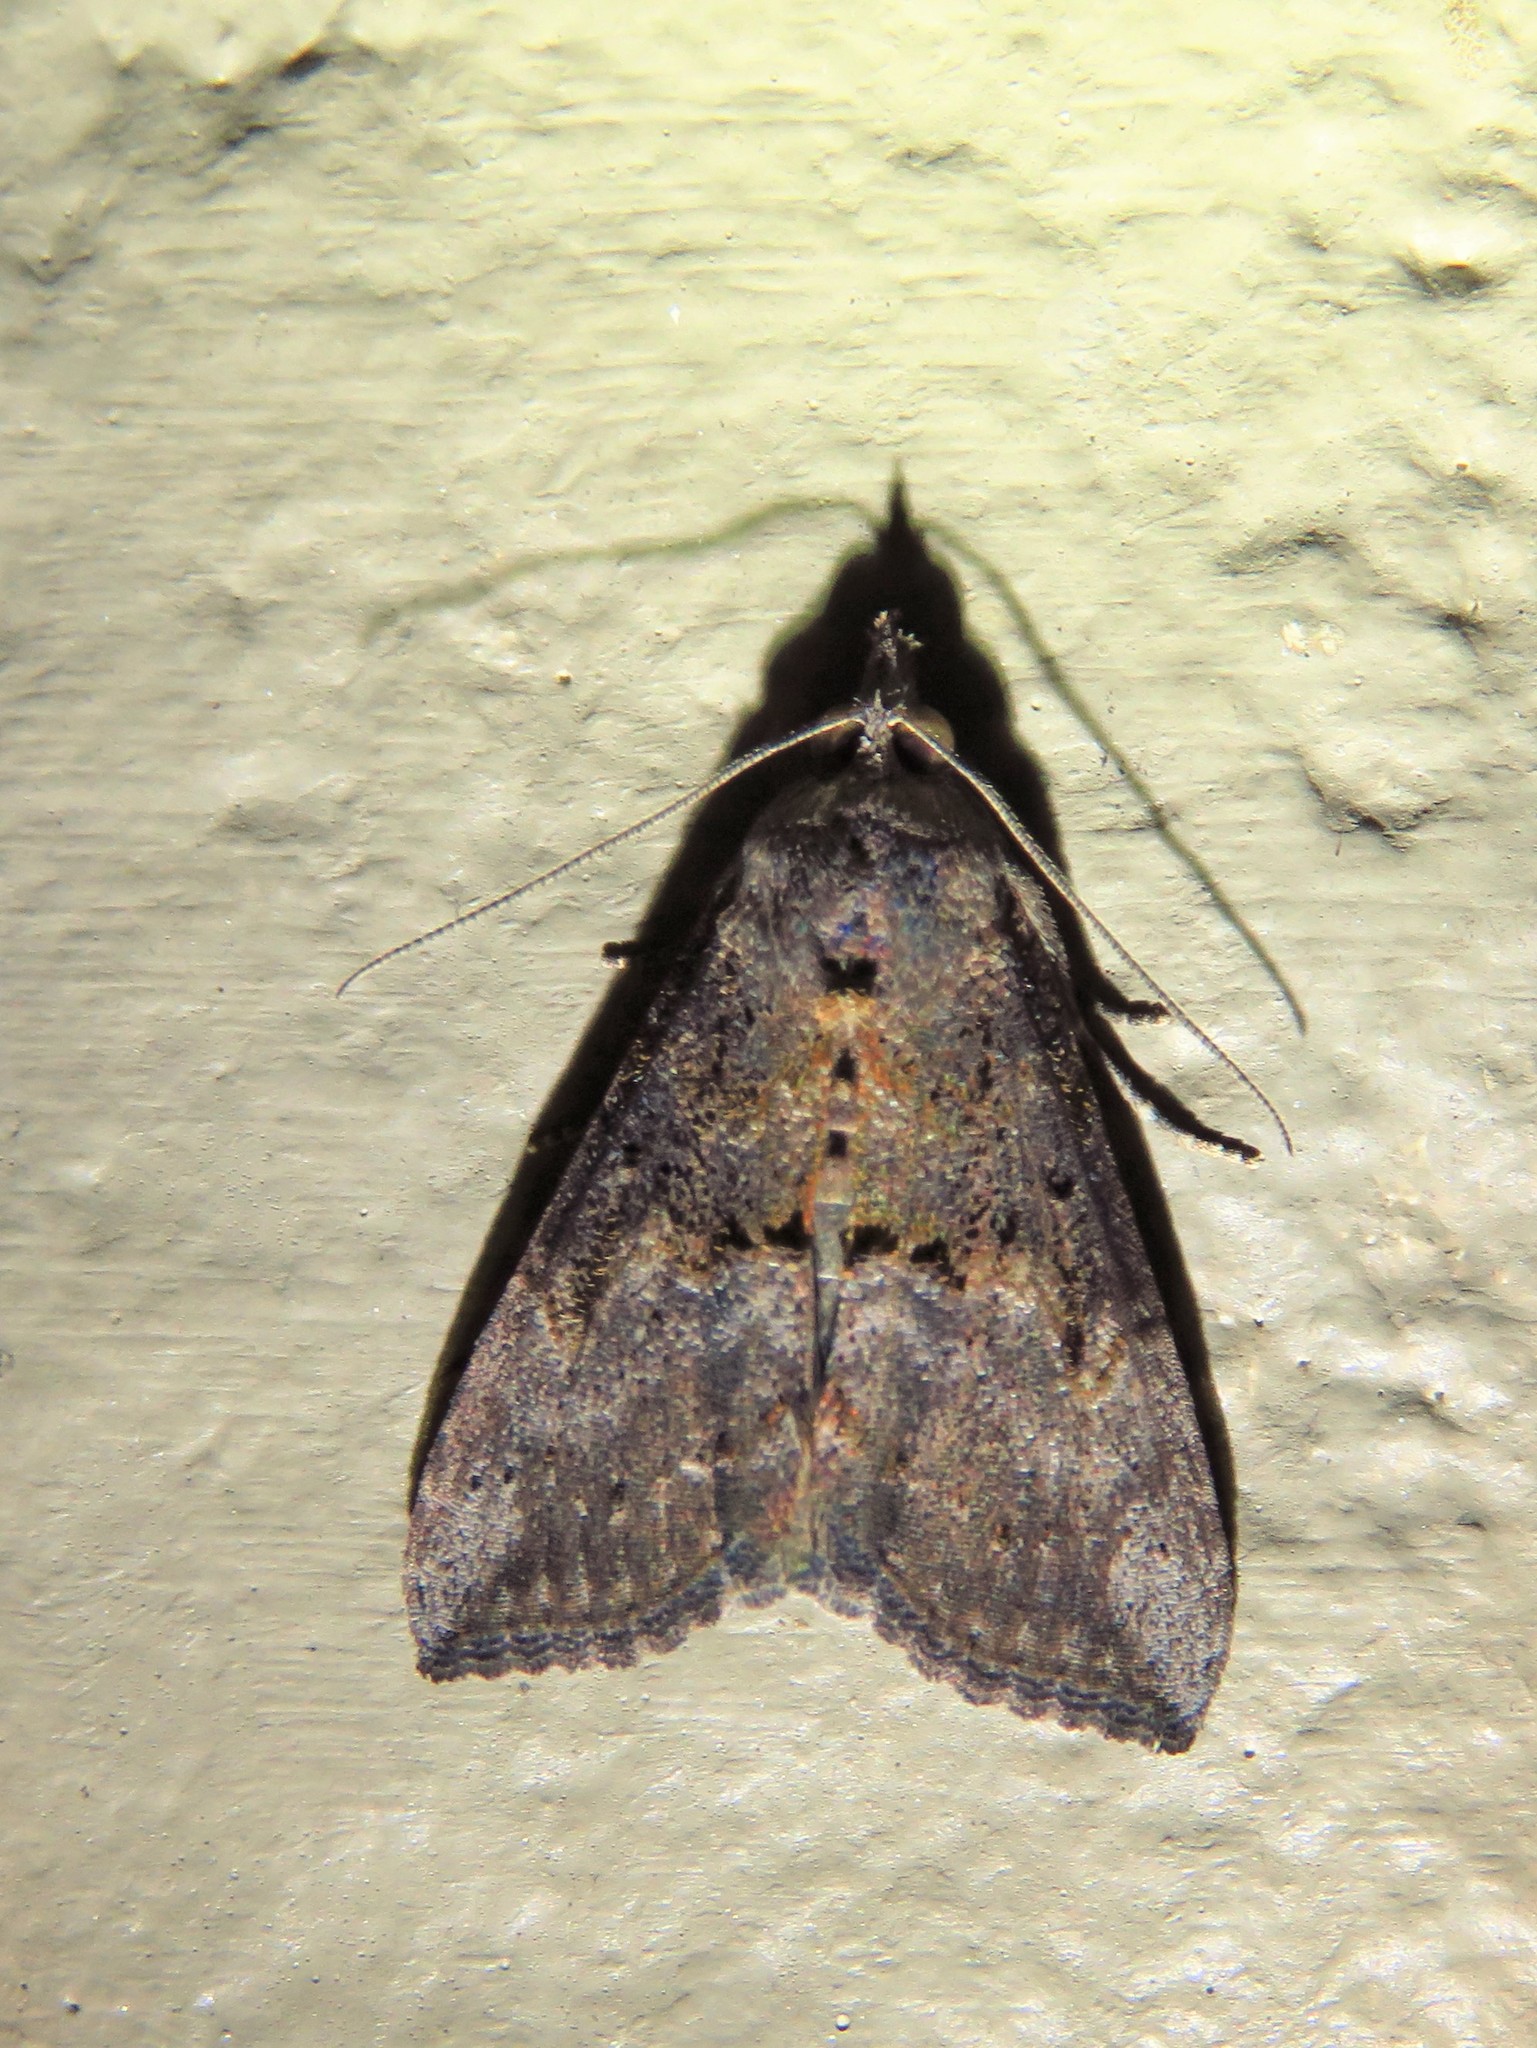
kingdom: Animalia
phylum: Arthropoda
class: Insecta
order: Lepidoptera
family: Erebidae
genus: Hypena
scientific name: Hypena scabra
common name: Green cloverworm
